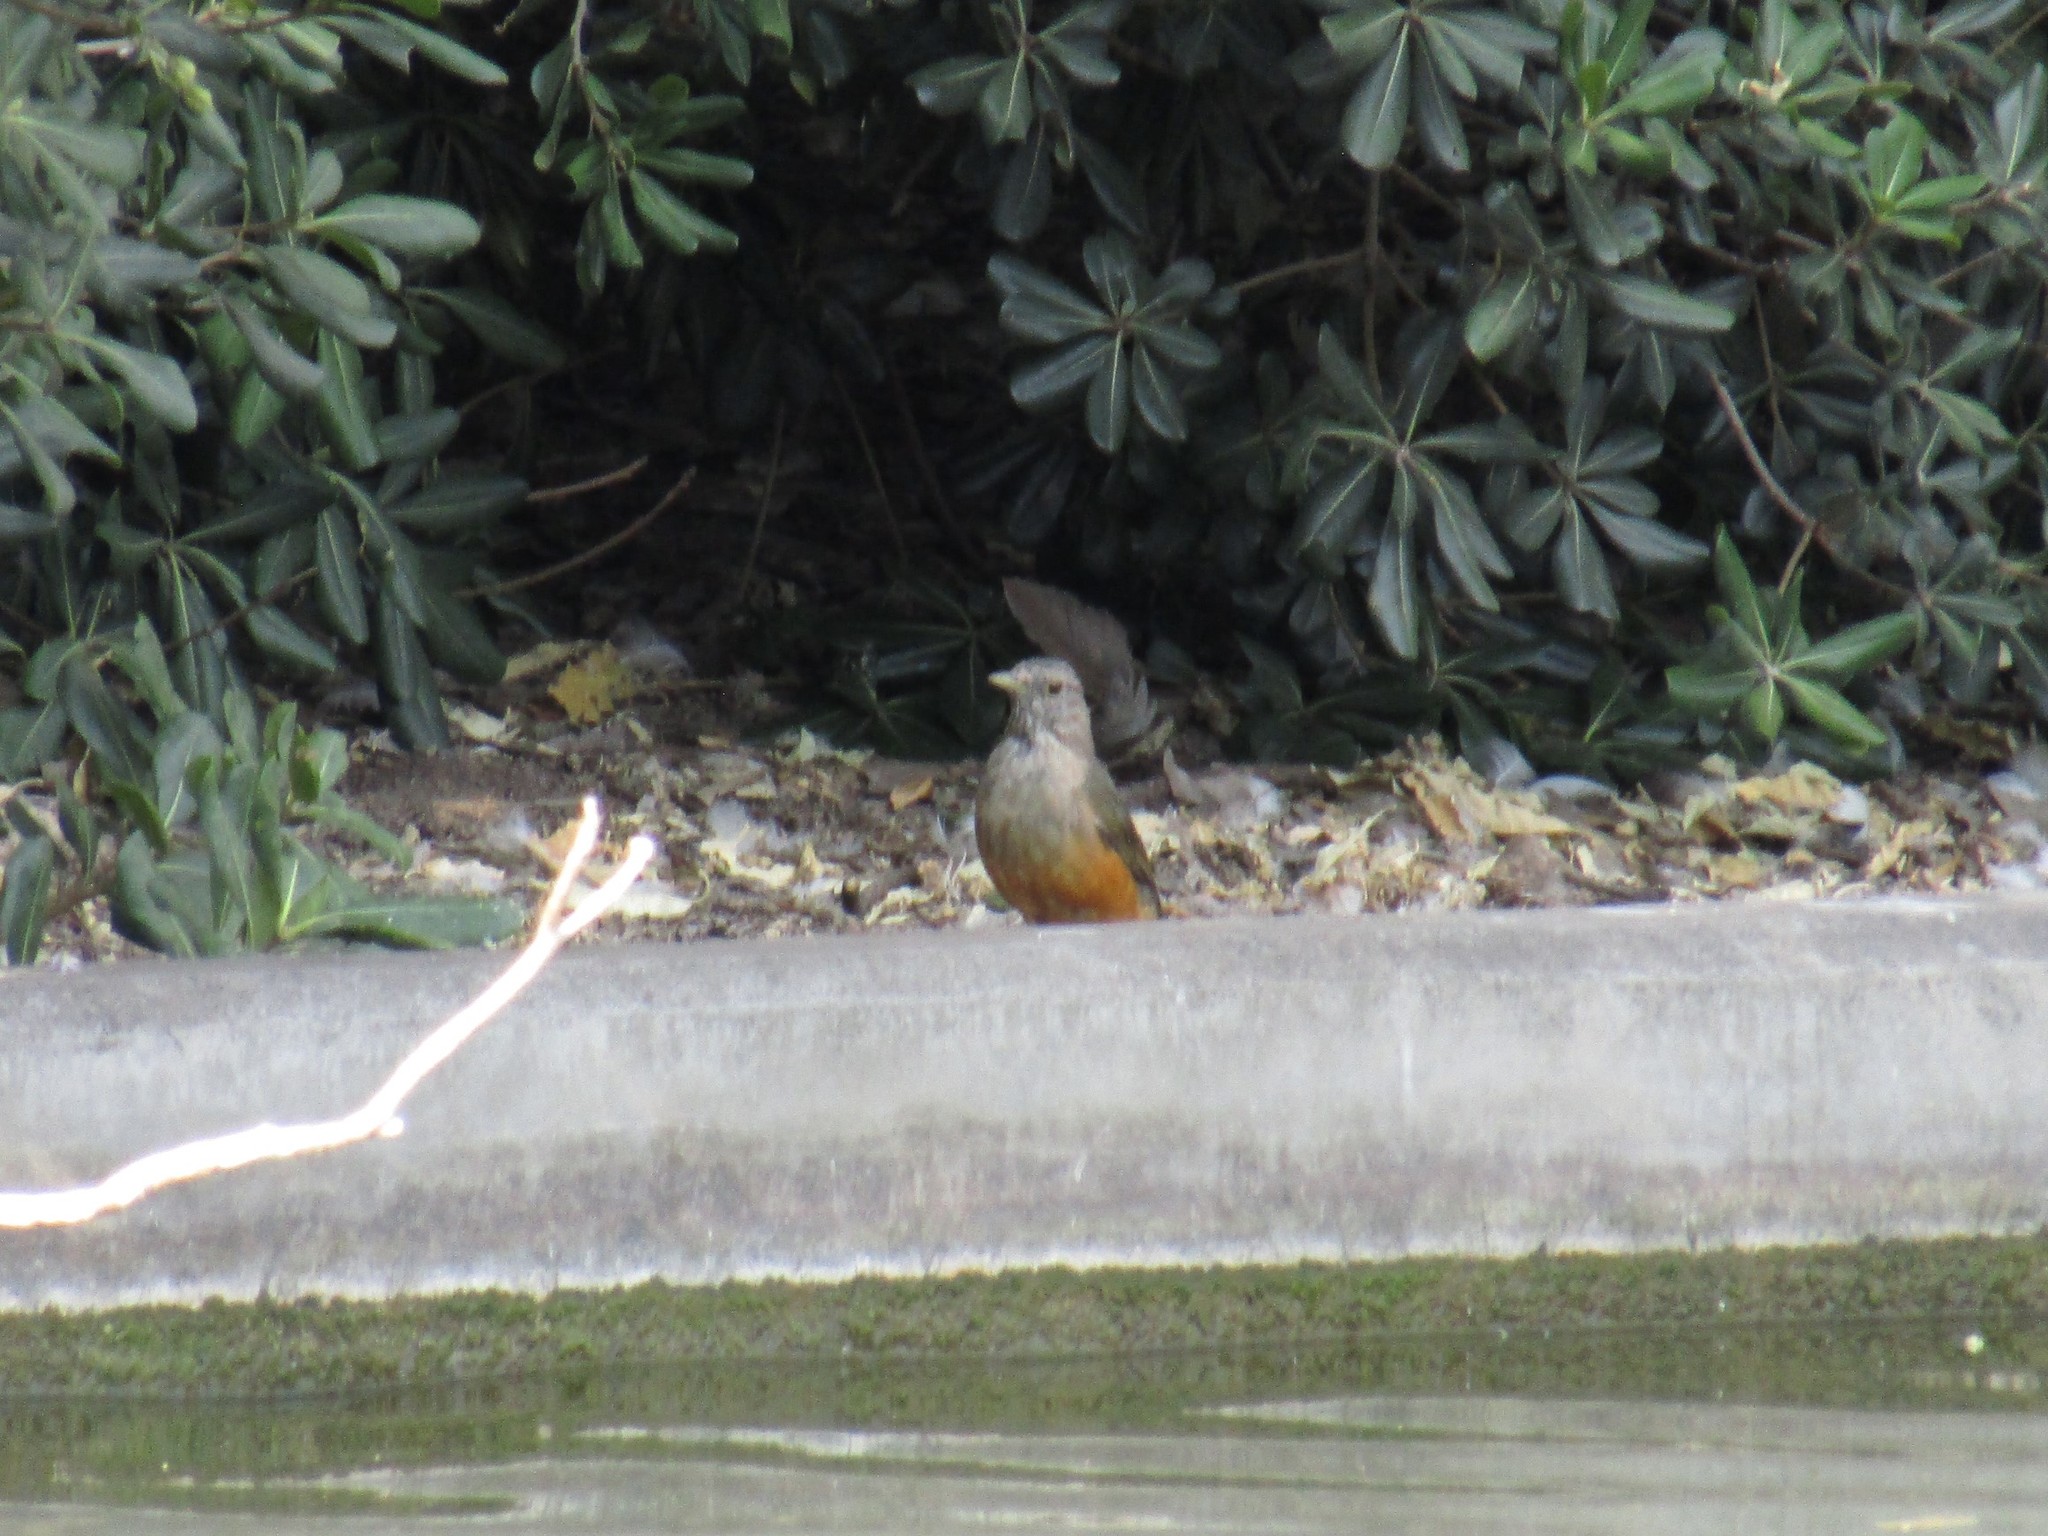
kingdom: Animalia
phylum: Chordata
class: Aves
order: Passeriformes
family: Turdidae
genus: Turdus
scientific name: Turdus rufiventris
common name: Rufous-bellied thrush
